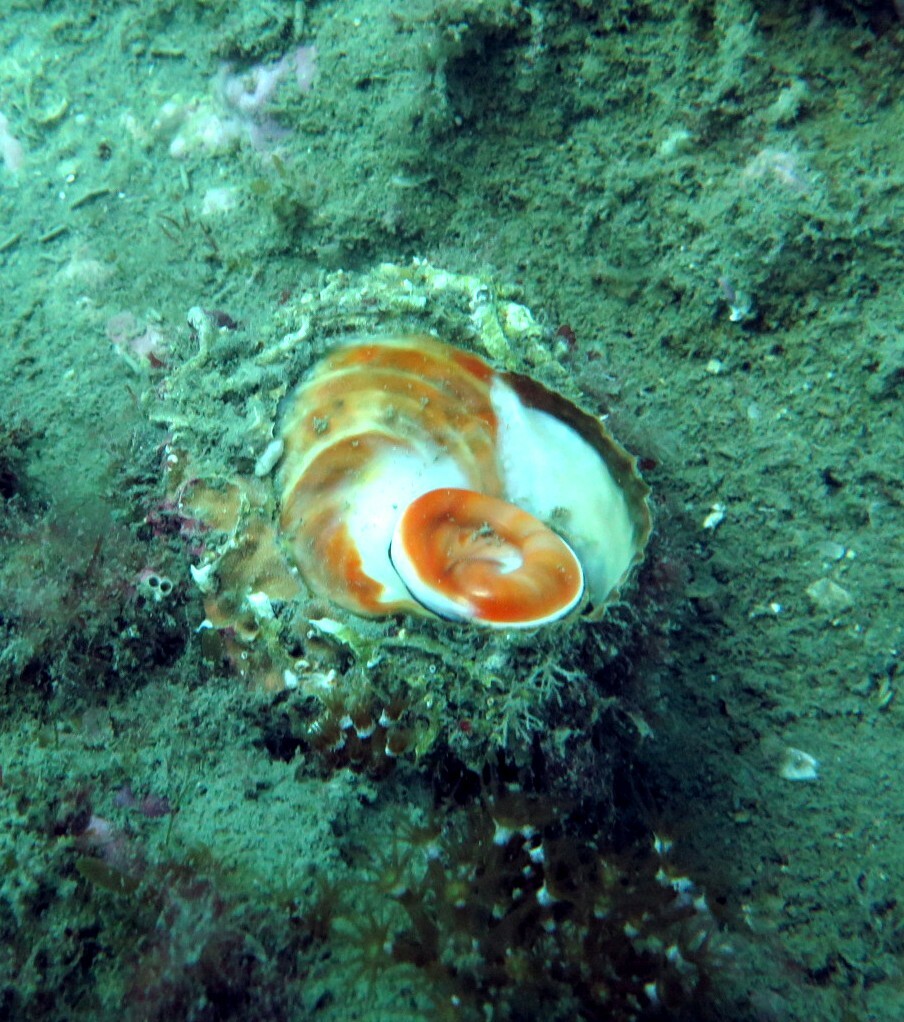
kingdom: Animalia
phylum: Mollusca
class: Gastropoda
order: Trochida
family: Turbinidae
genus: Bolma
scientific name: Bolma rugosa
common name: Rough star shell
